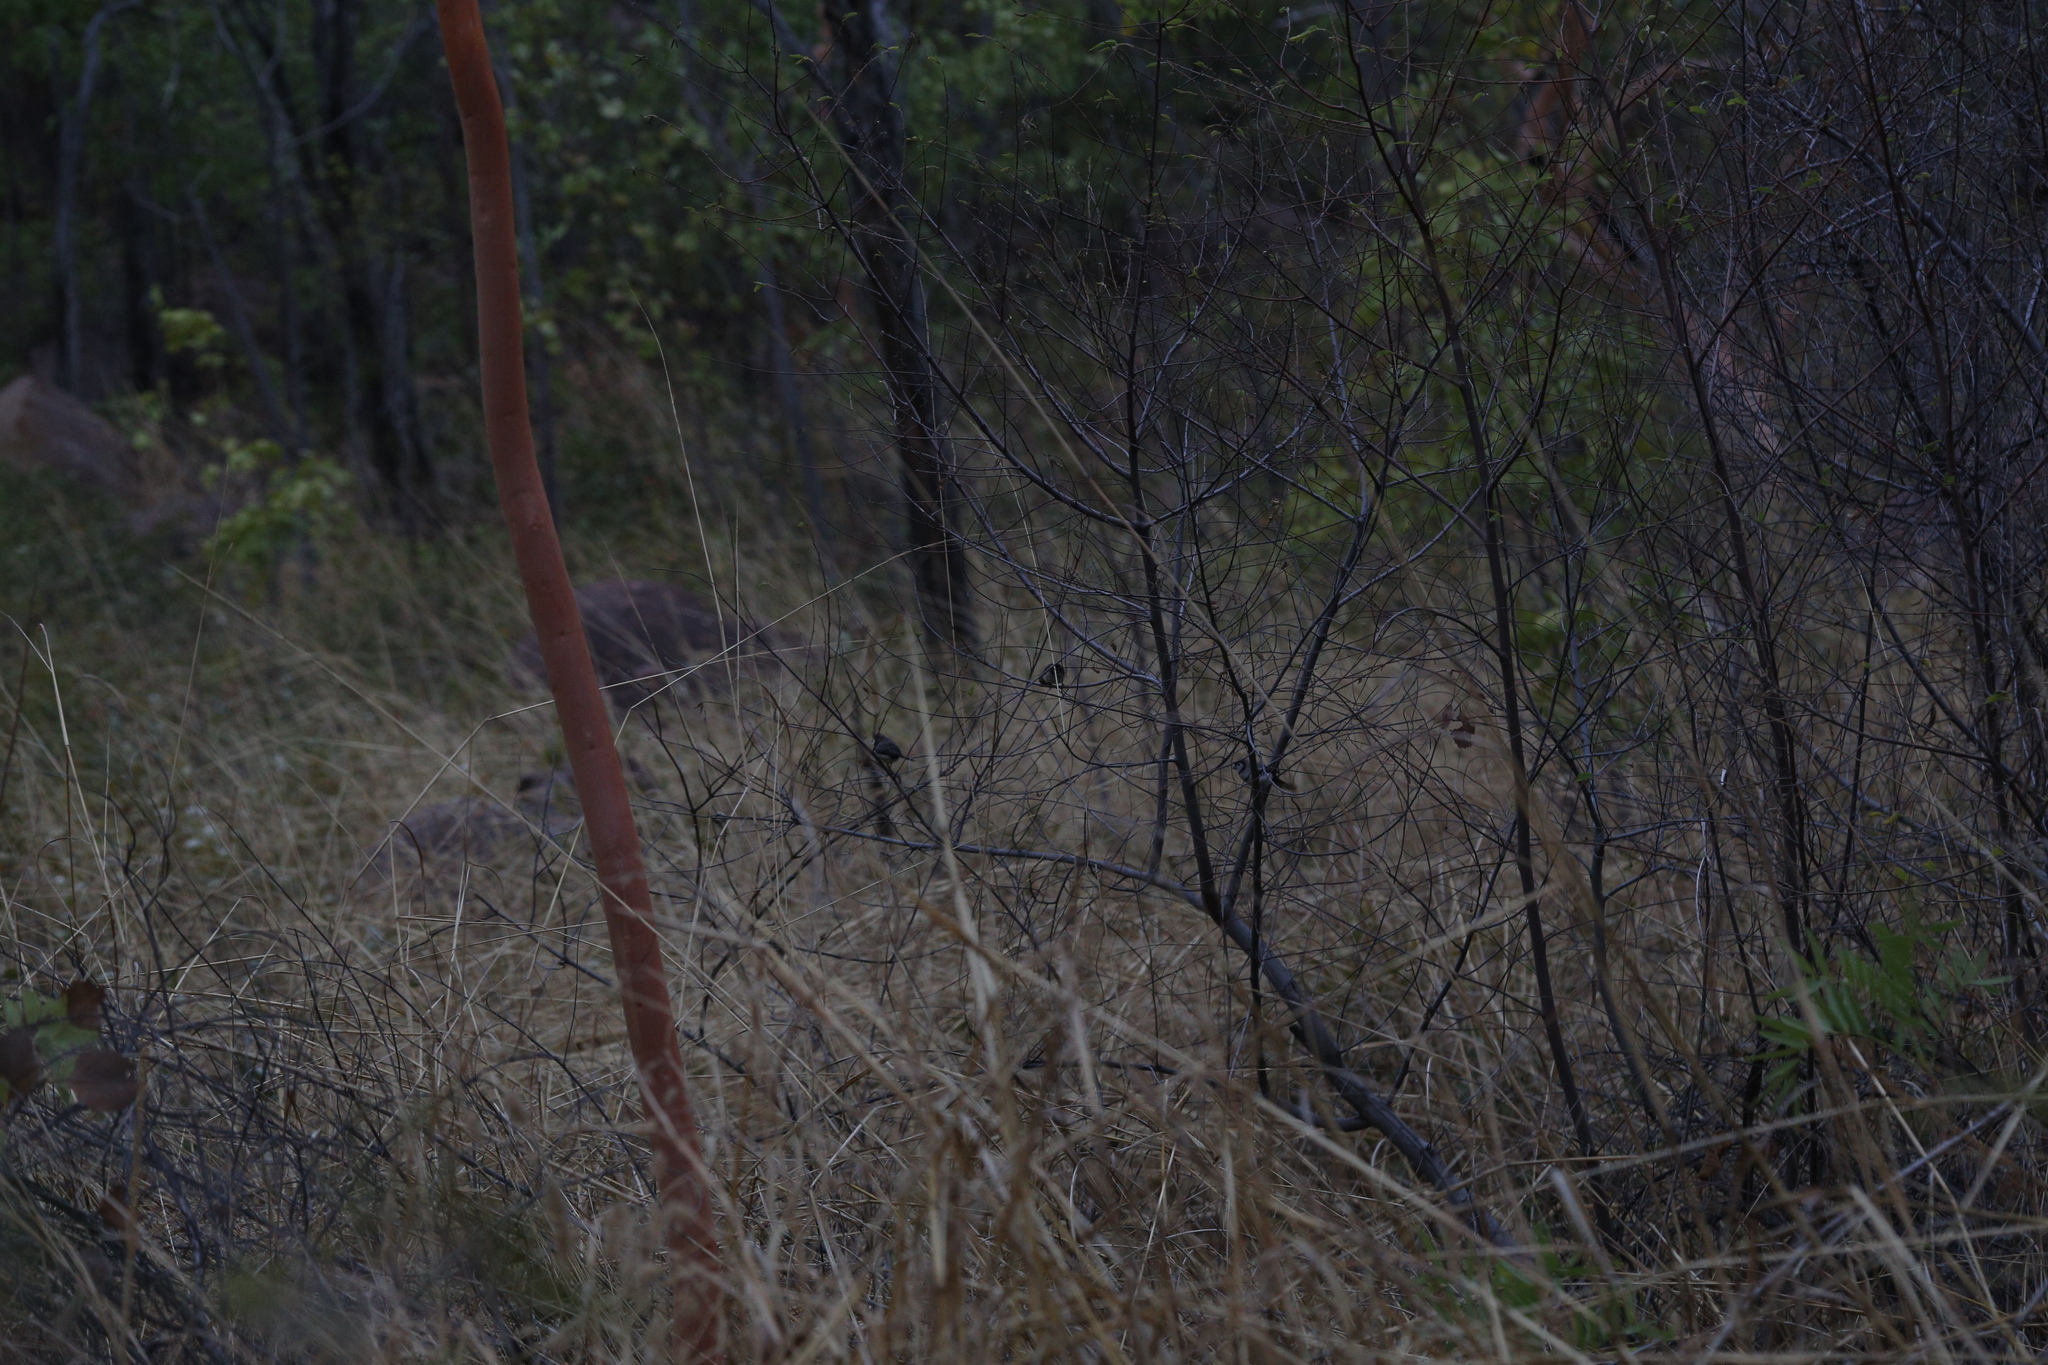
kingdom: Animalia
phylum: Chordata
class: Aves
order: Passeriformes
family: Estrildidae
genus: Taeniopygia
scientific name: Taeniopygia bichenovii
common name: Double-barred finch
